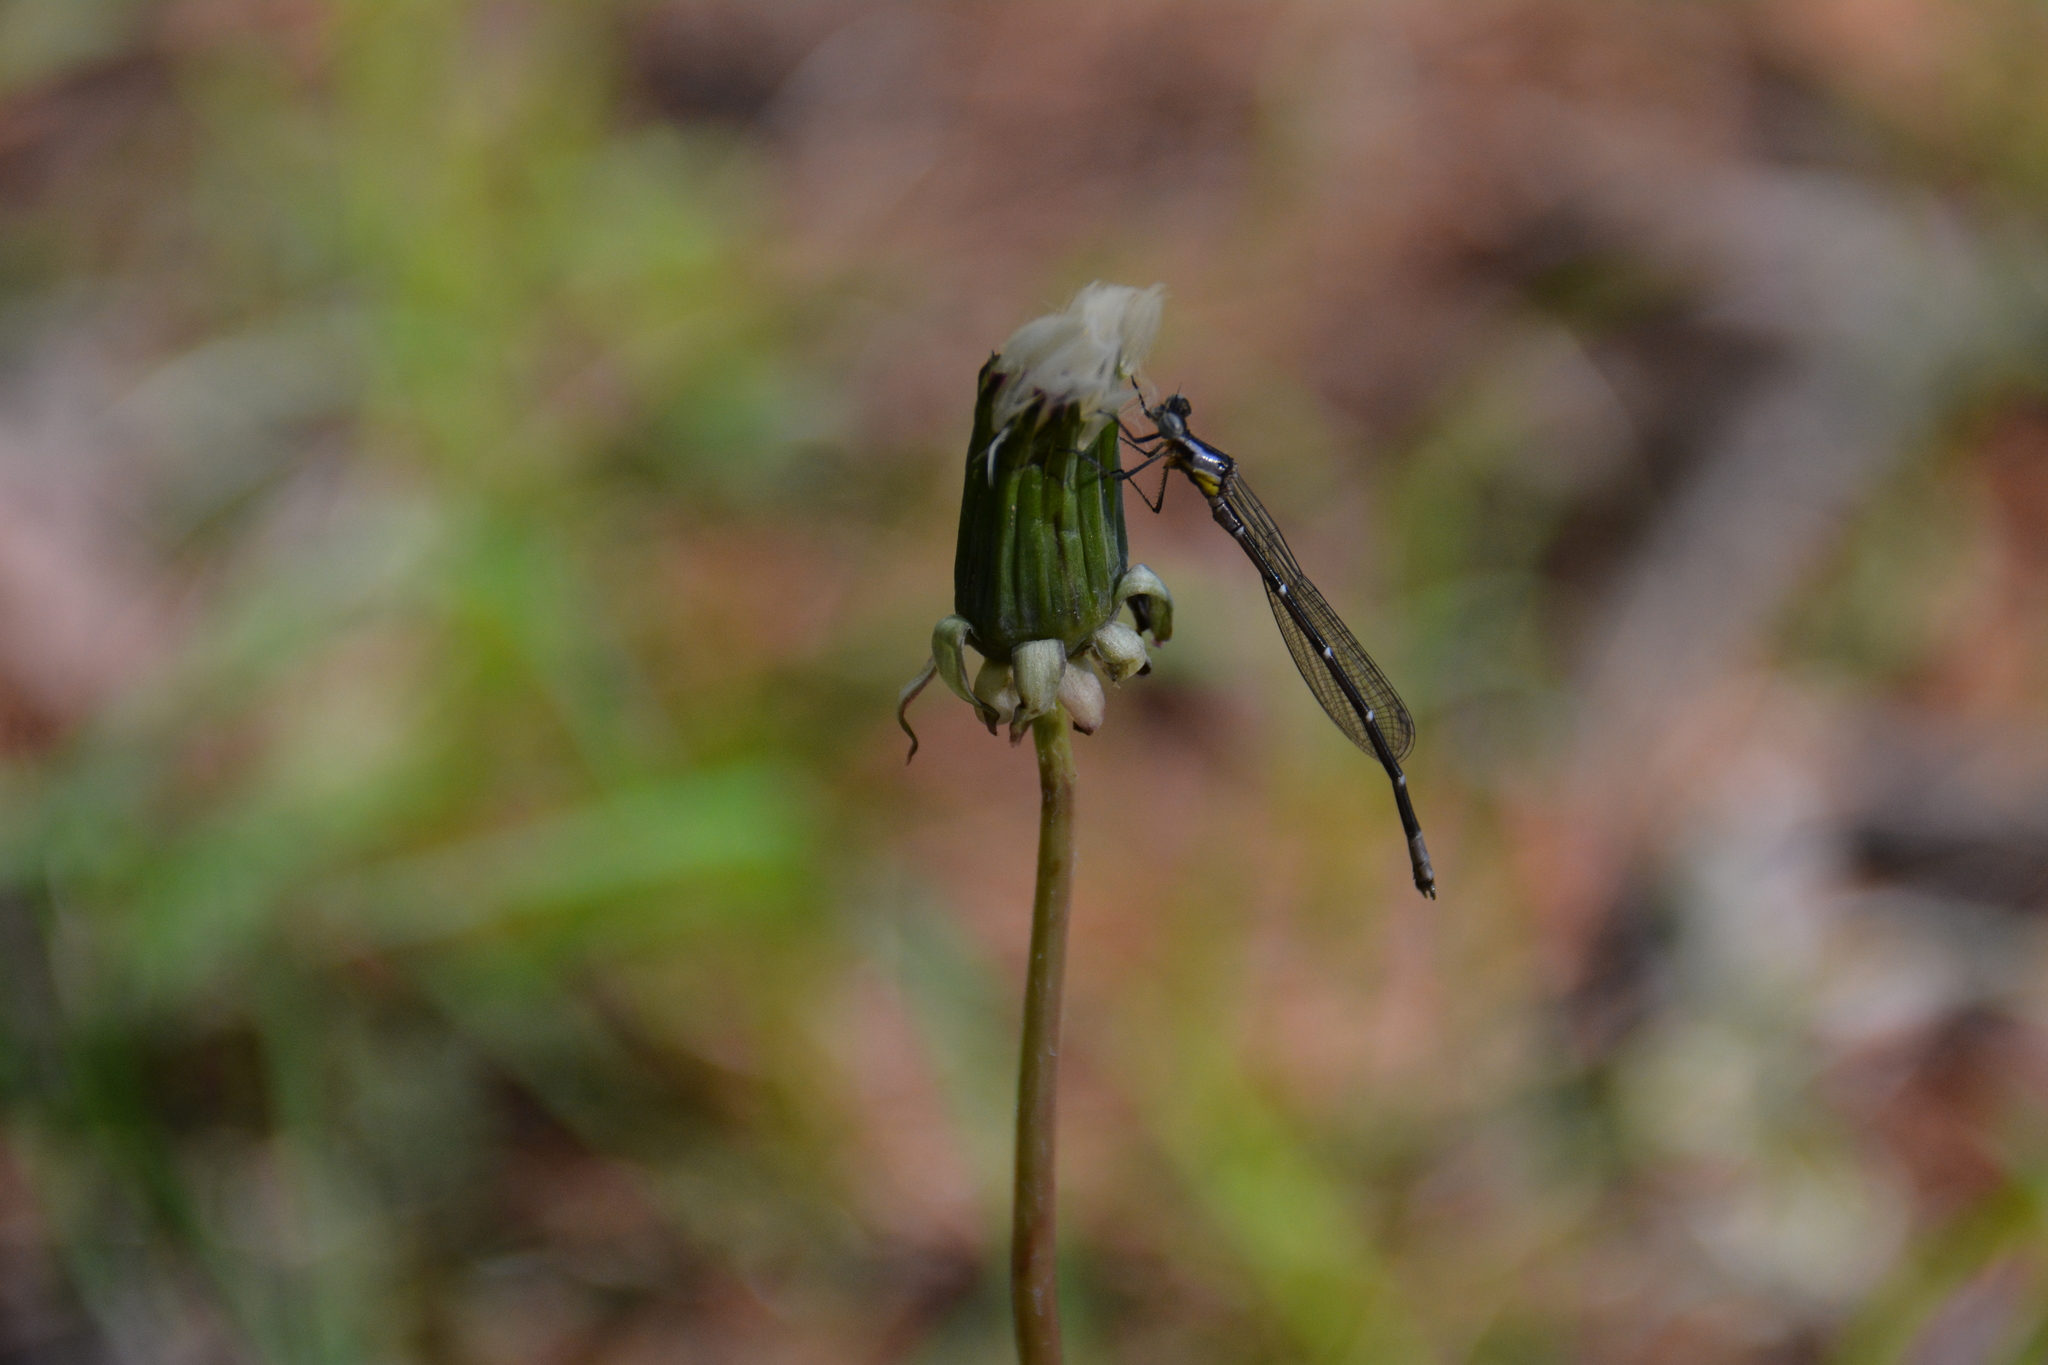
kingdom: Animalia
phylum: Arthropoda
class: Insecta
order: Odonata
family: Coenagrionidae
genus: Chromagrion
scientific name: Chromagrion conditum
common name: Aurora damsel
